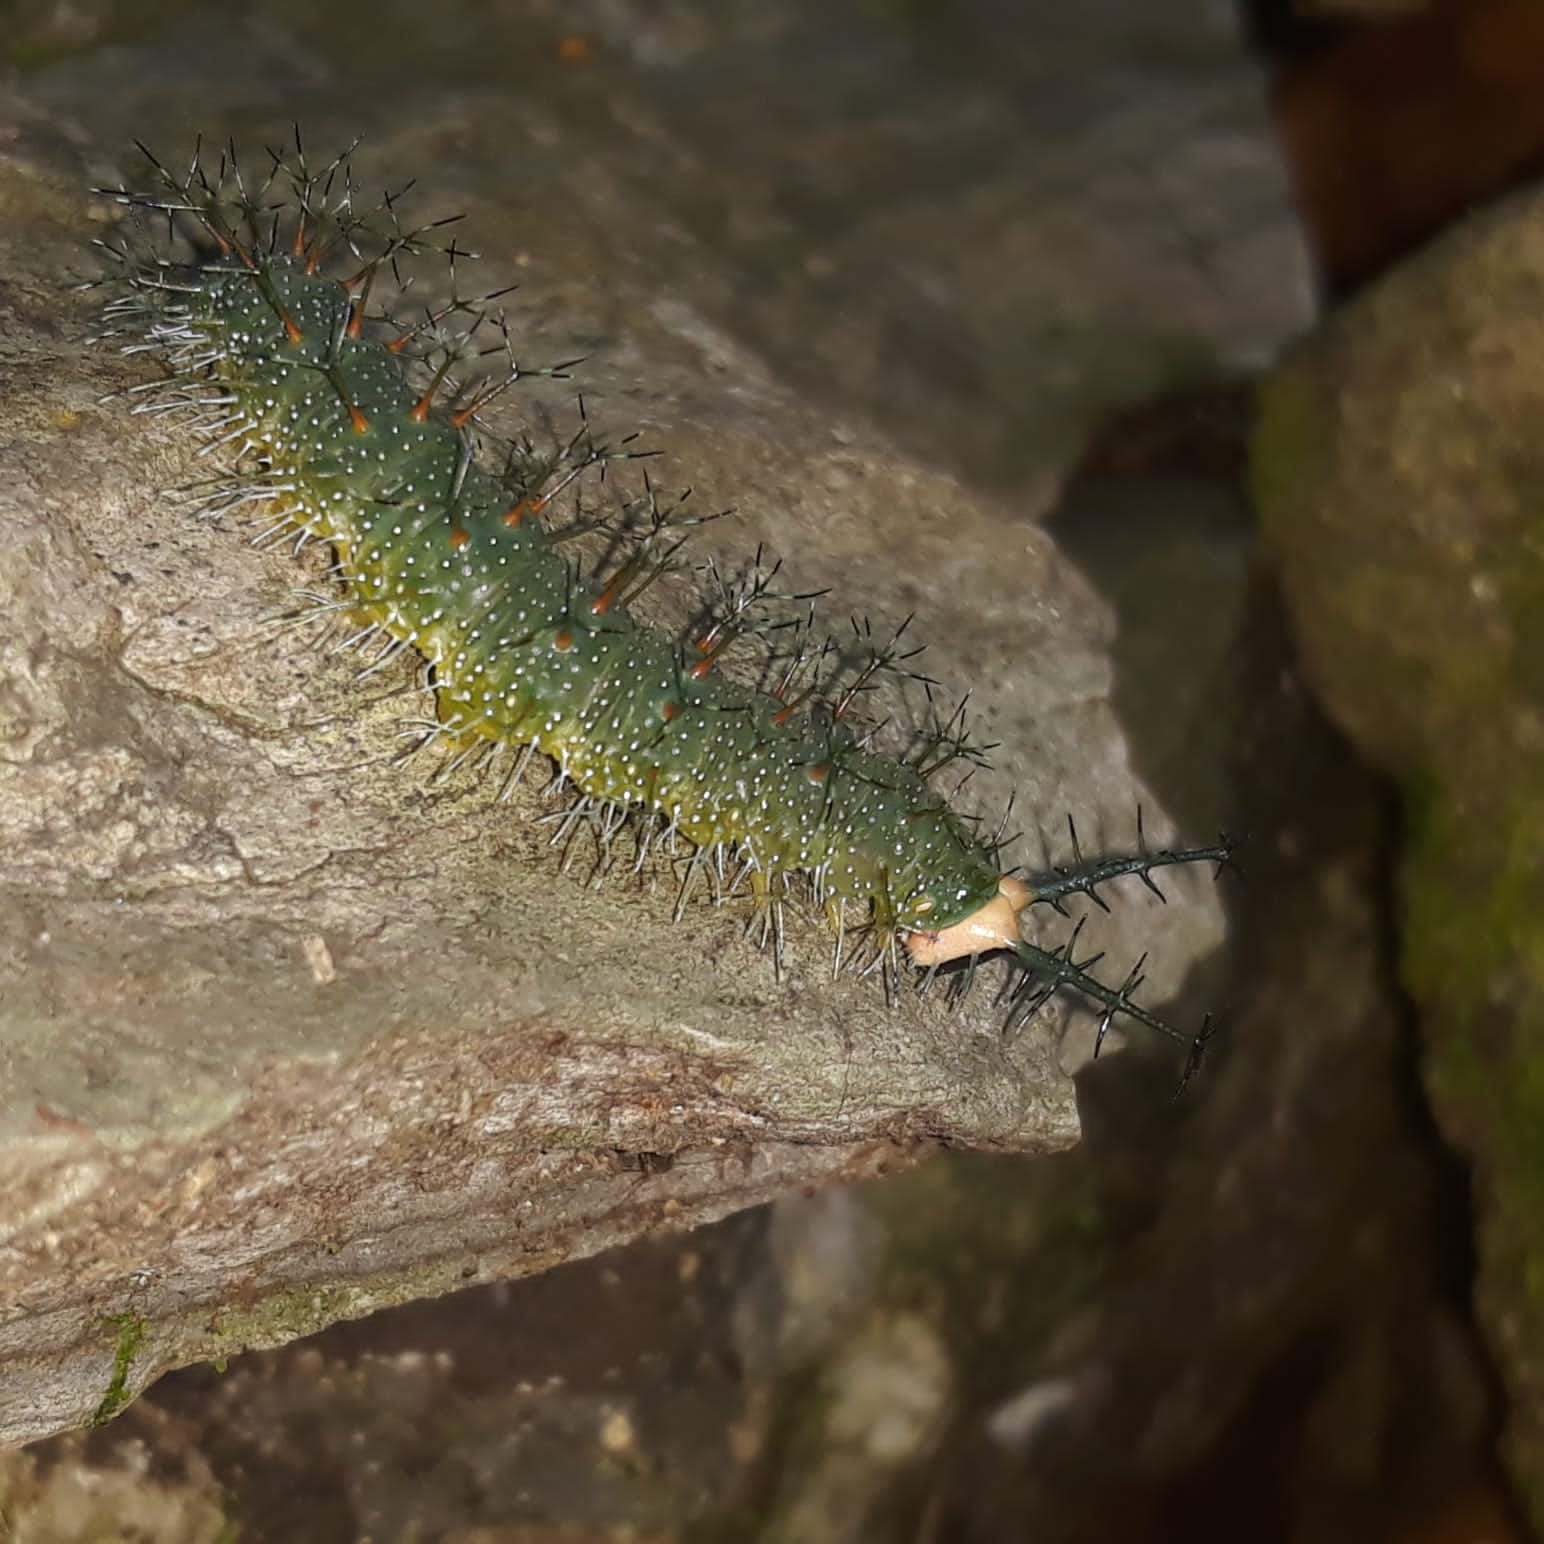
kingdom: Animalia
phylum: Arthropoda
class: Insecta
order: Lepidoptera
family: Nymphalidae
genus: Catonephele
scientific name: Catonephele numilia
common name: Blue-frosted banner
